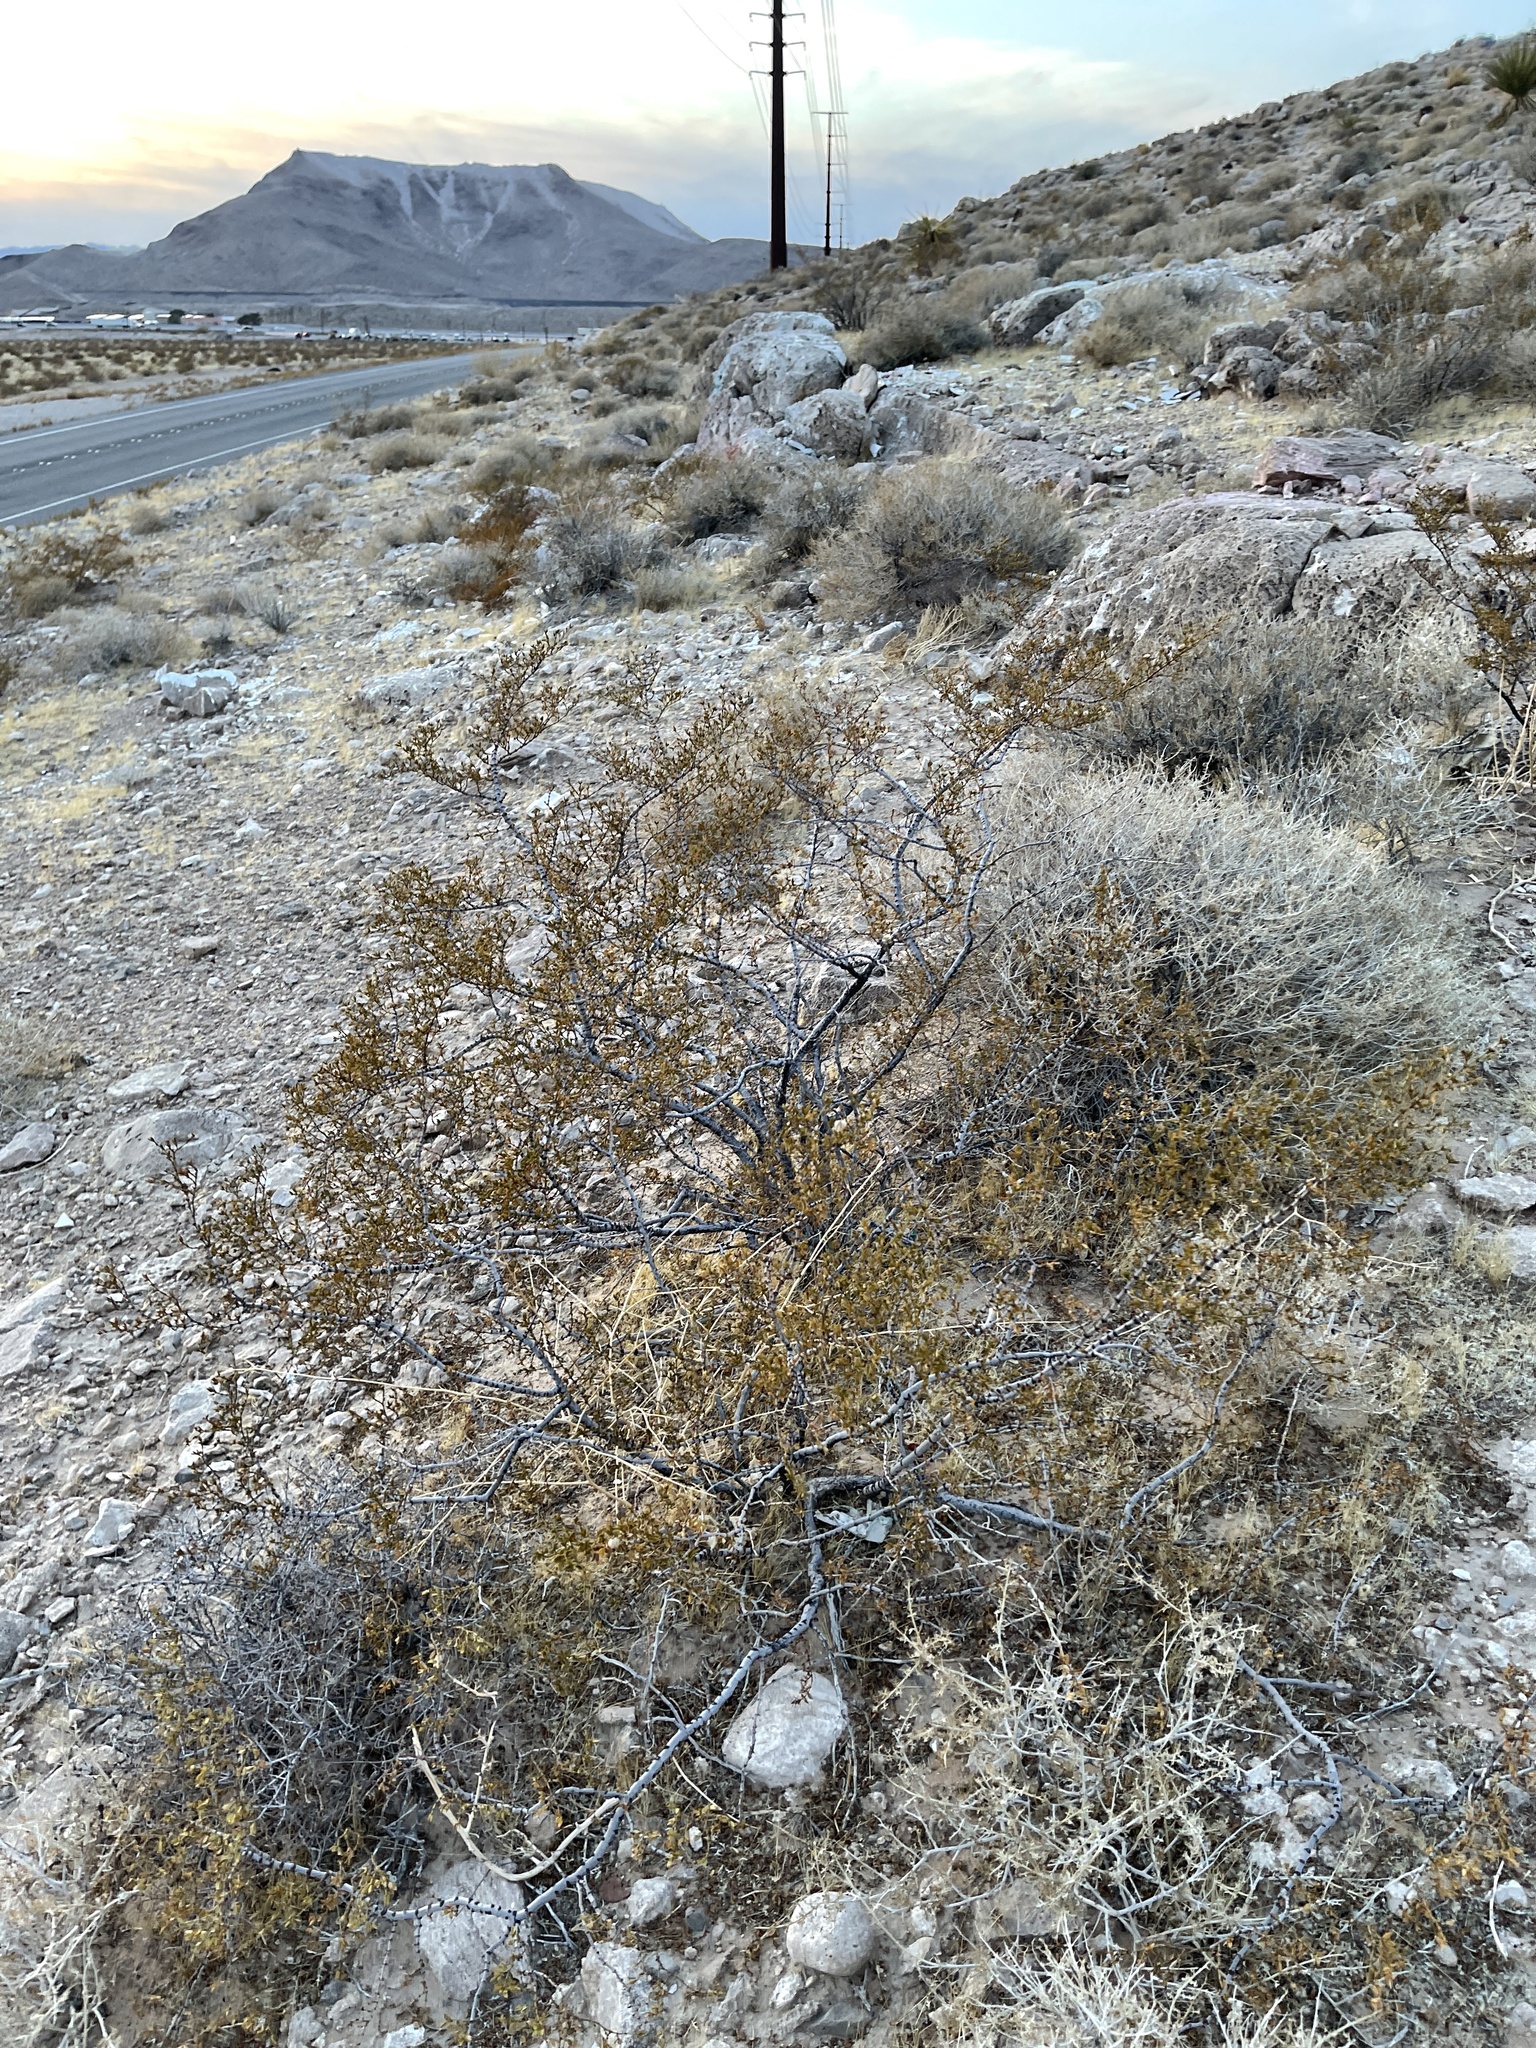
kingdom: Plantae
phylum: Tracheophyta
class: Magnoliopsida
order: Zygophyllales
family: Zygophyllaceae
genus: Larrea
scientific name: Larrea tridentata
